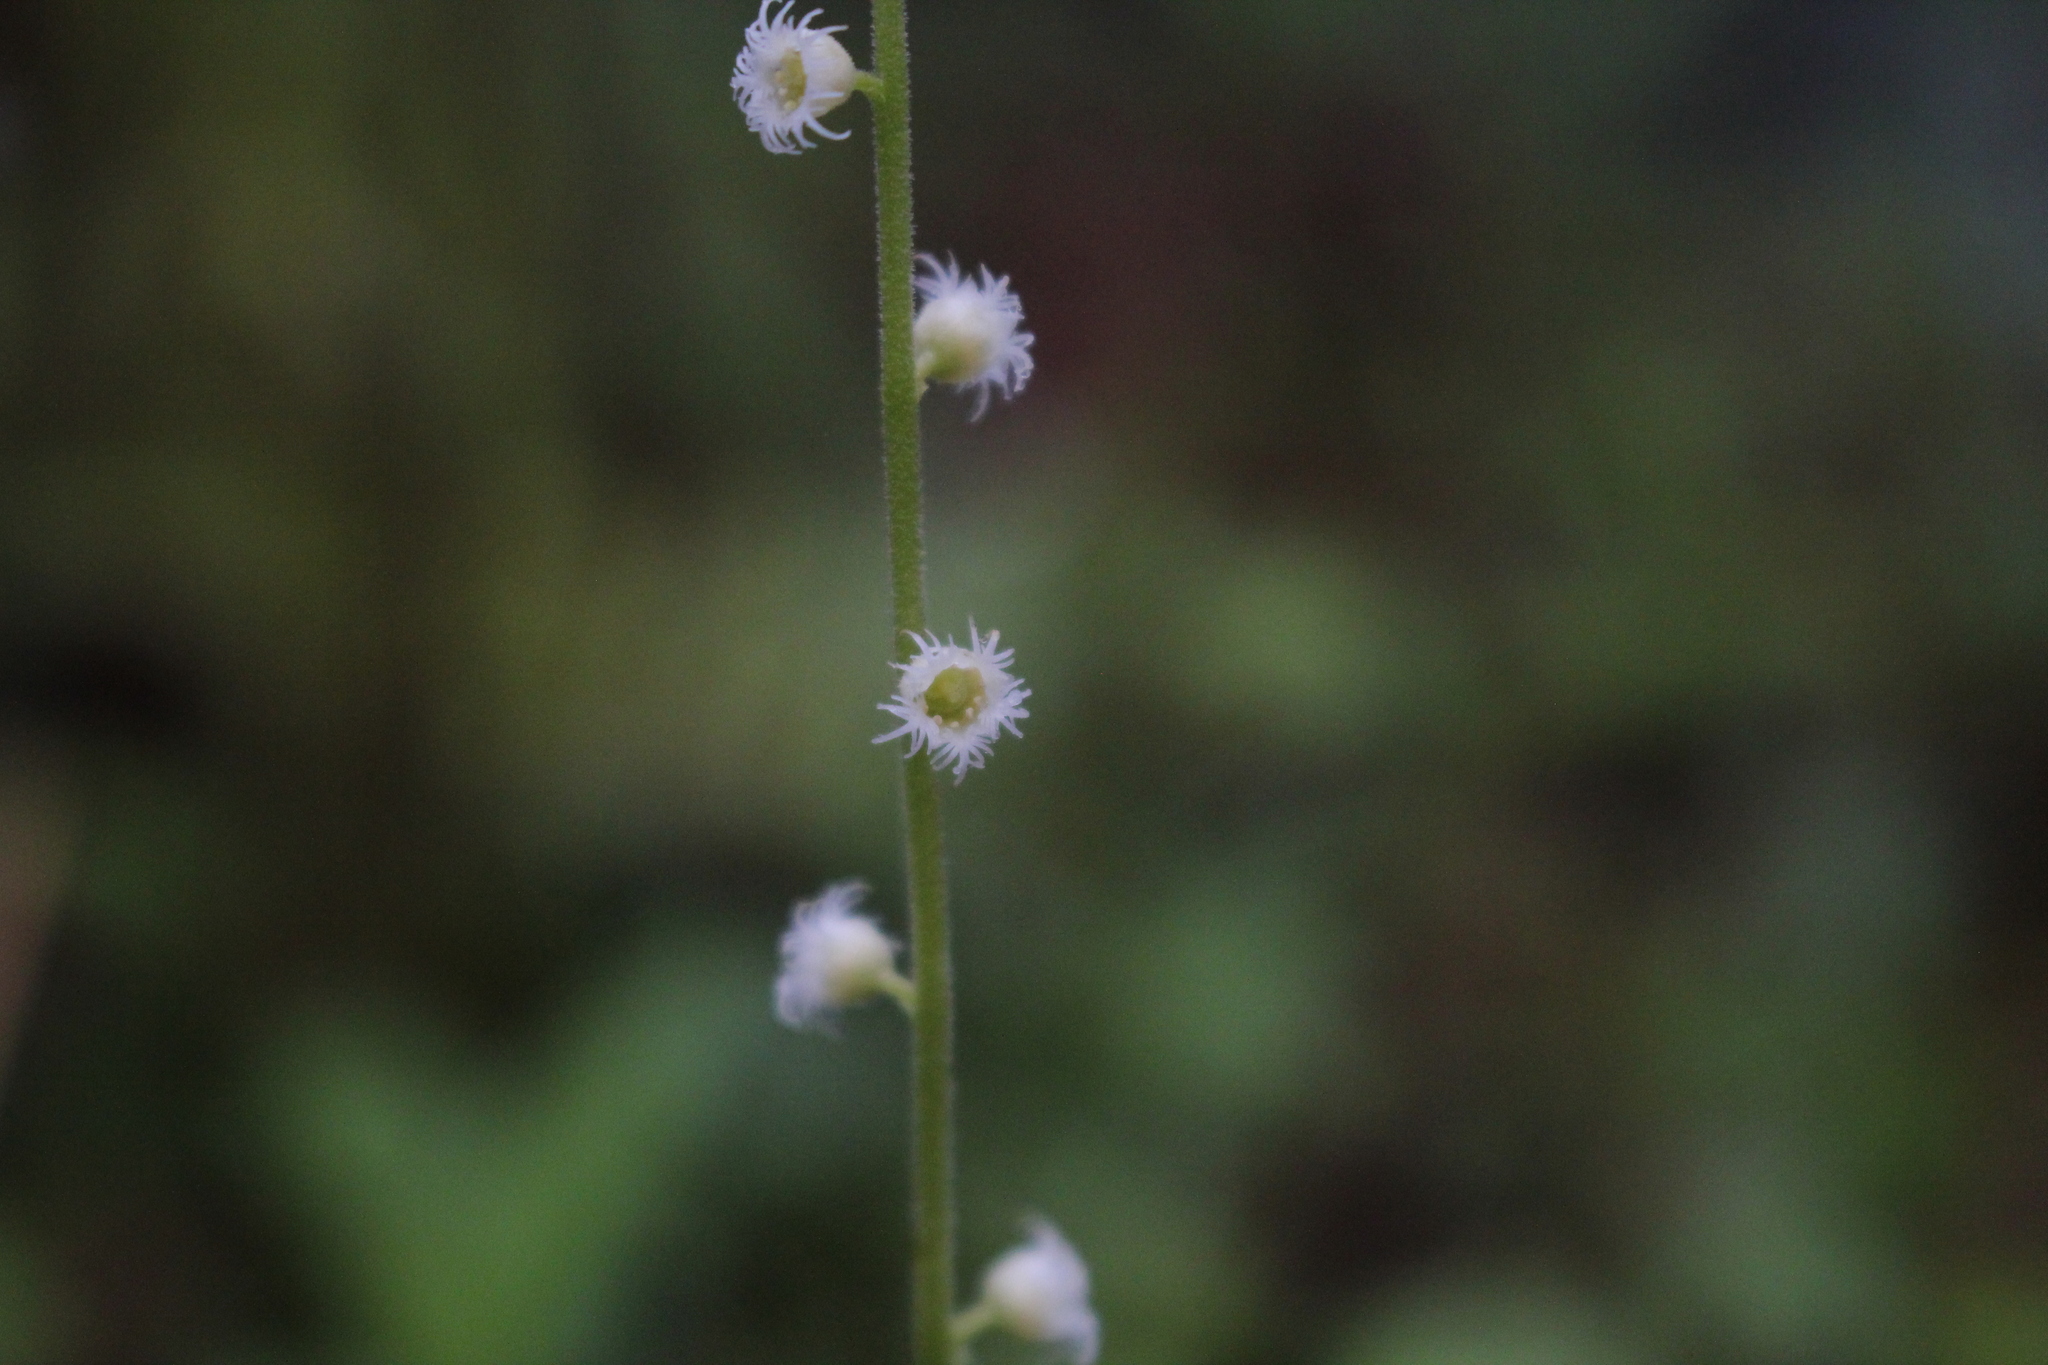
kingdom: Plantae
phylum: Tracheophyta
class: Magnoliopsida
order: Saxifragales
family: Saxifragaceae
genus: Mitella
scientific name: Mitella diphylla
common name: Coolwort
